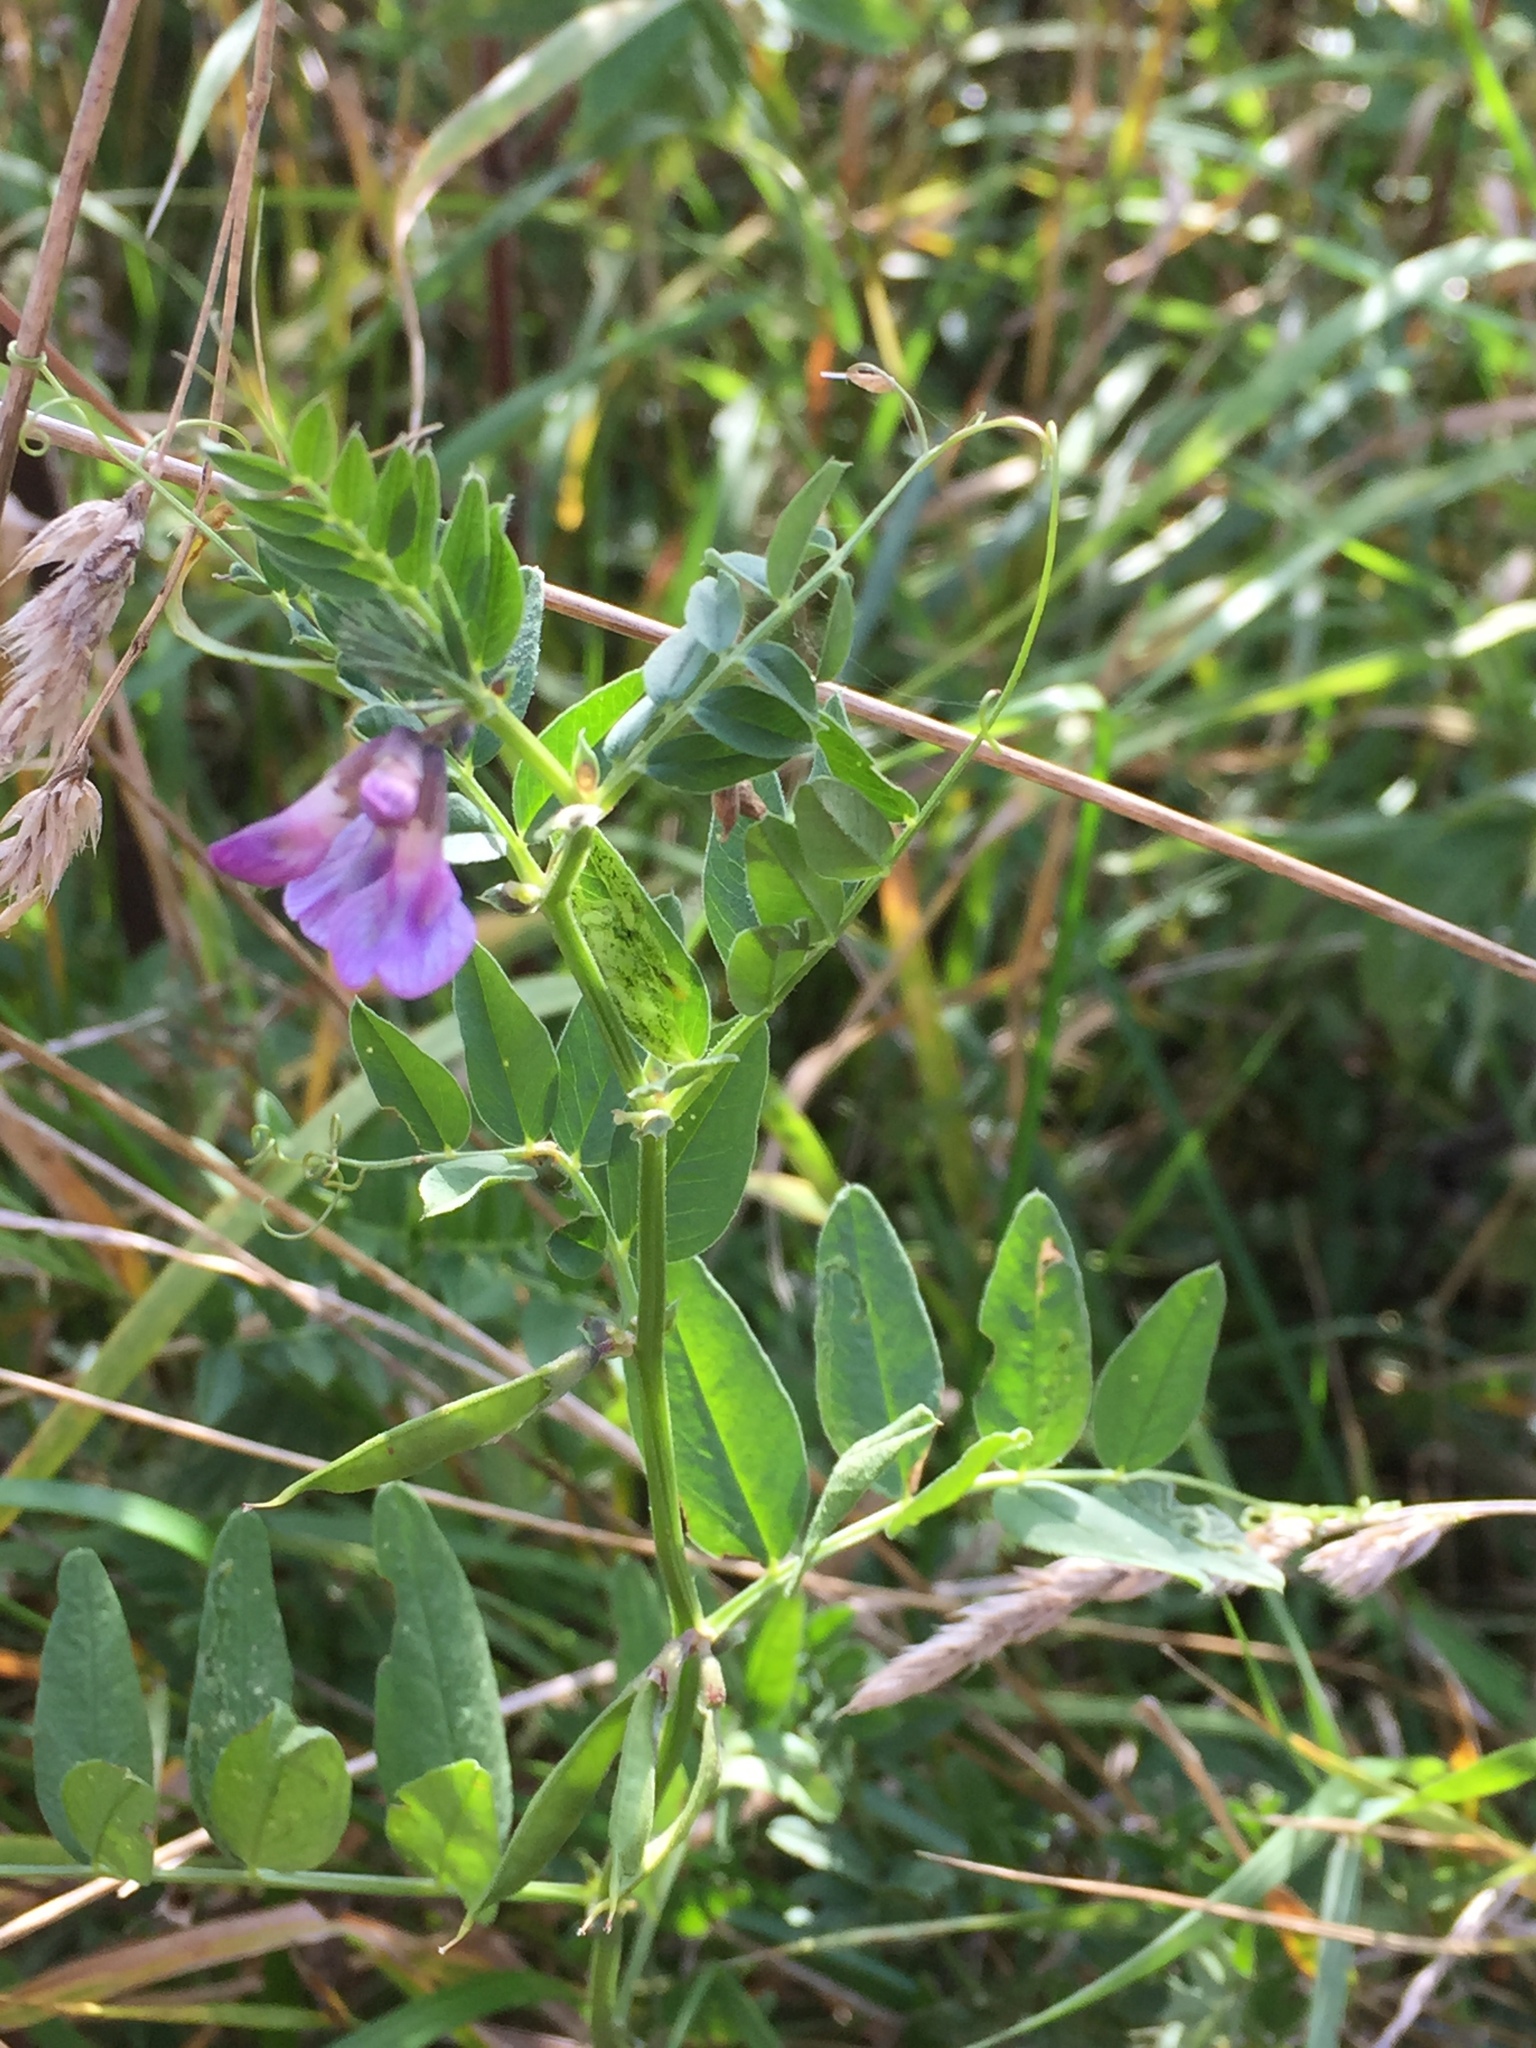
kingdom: Plantae
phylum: Tracheophyta
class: Magnoliopsida
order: Fabales
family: Fabaceae
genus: Vicia
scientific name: Vicia sepium
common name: Bush vetch
